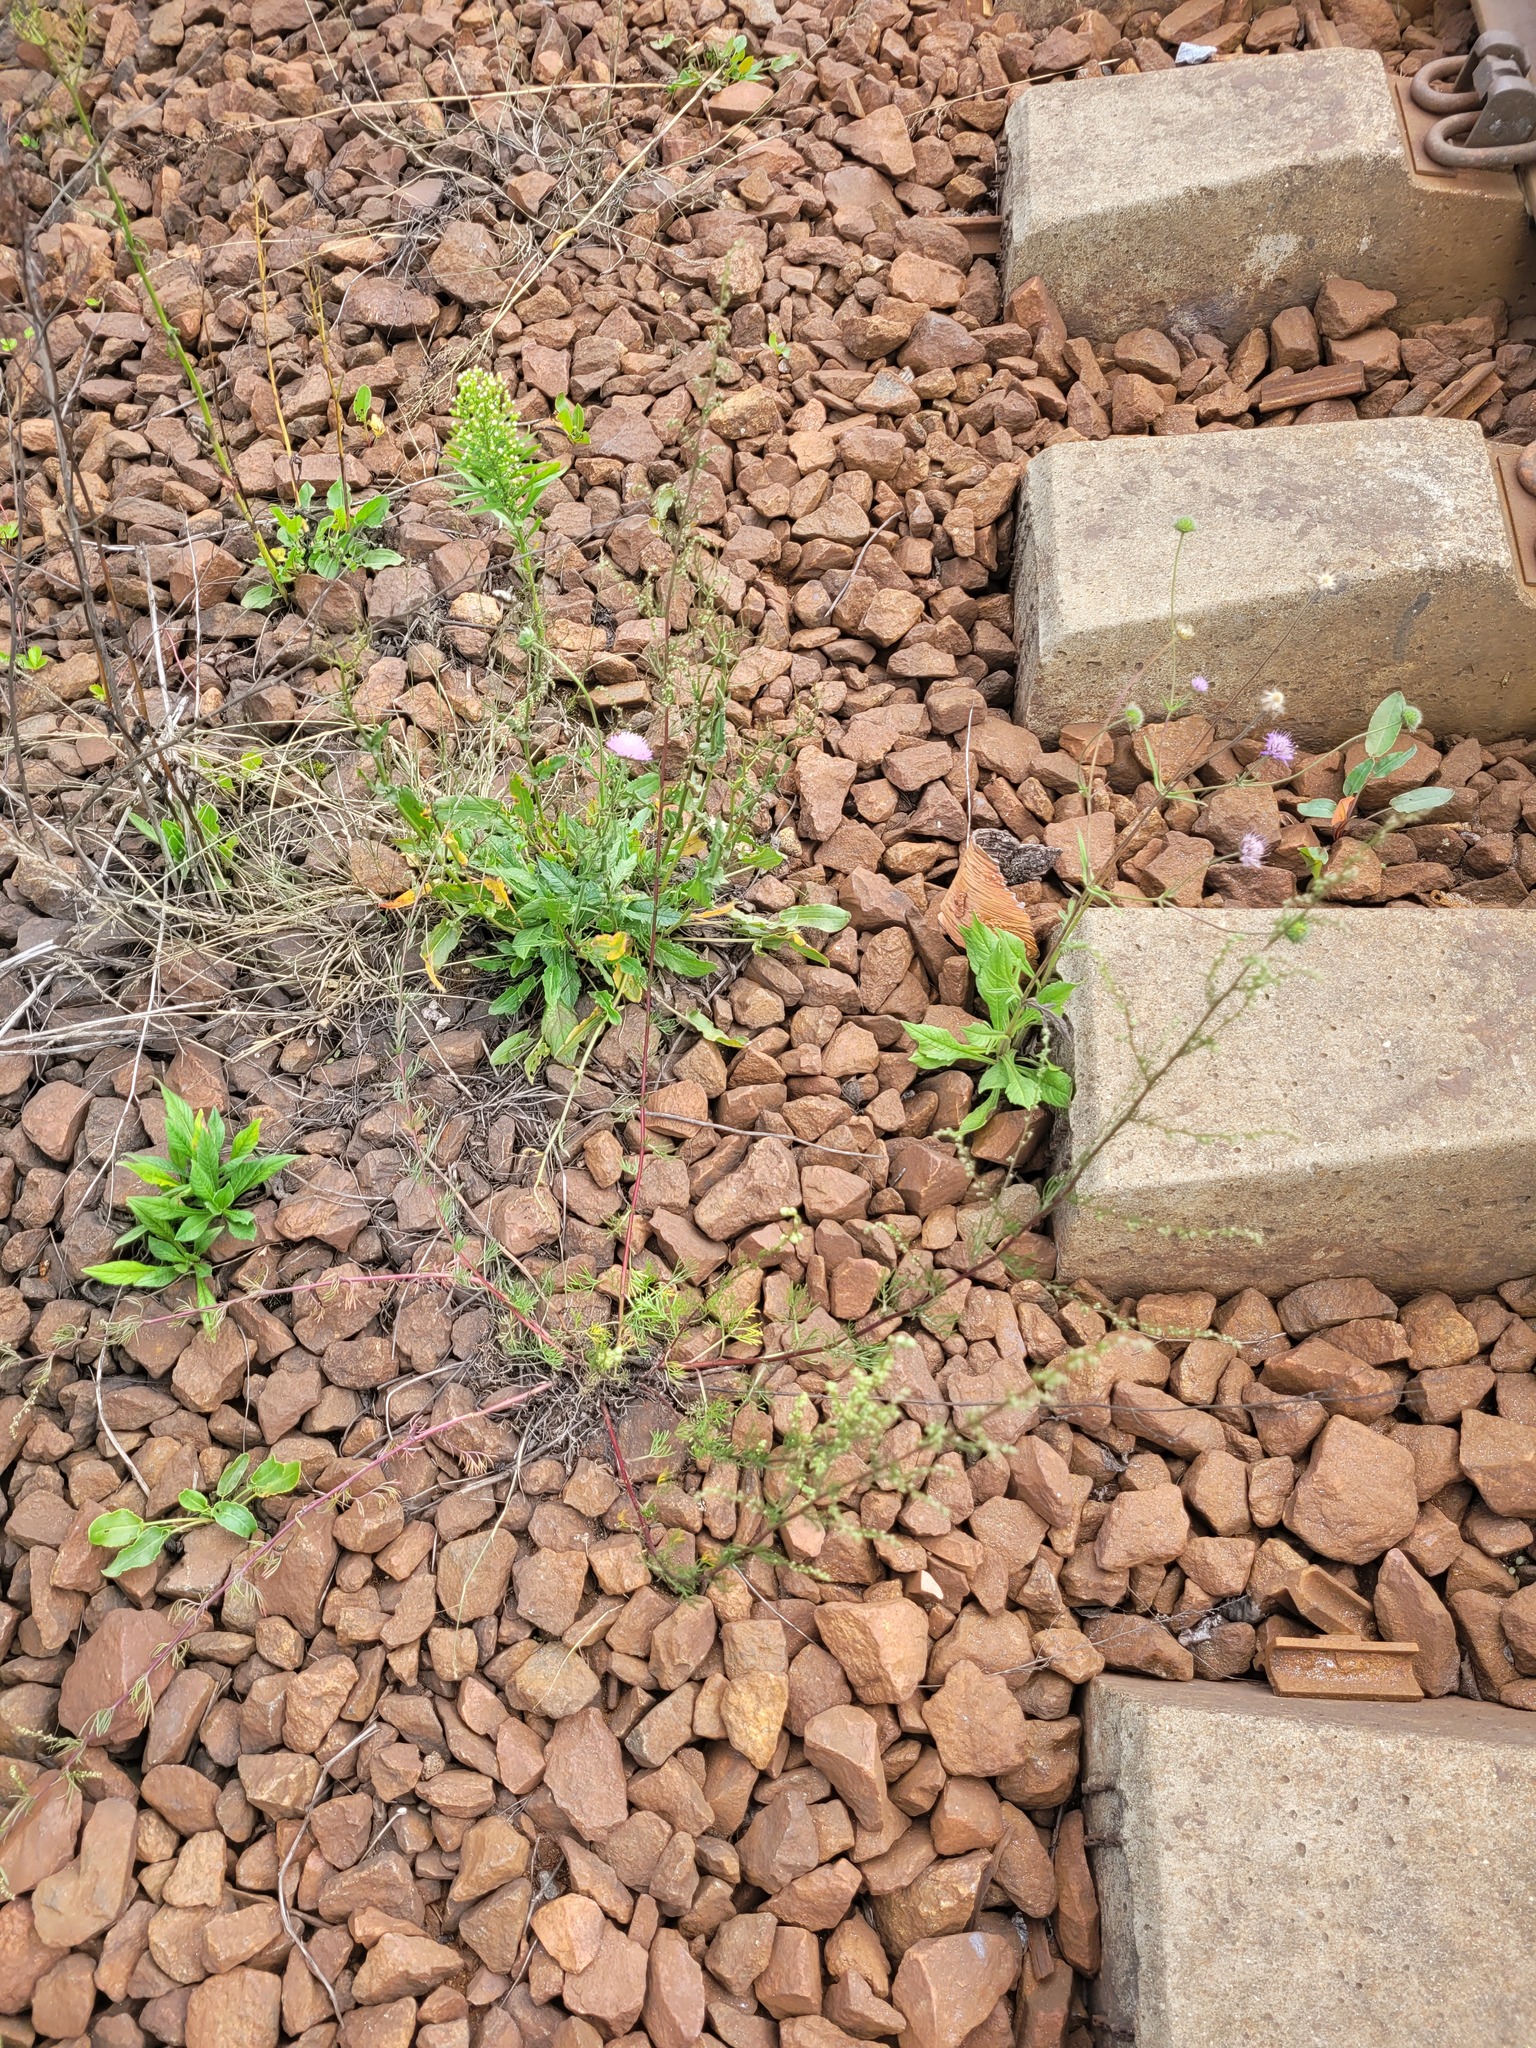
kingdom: Plantae
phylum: Tracheophyta
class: Magnoliopsida
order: Asterales
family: Asteraceae
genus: Artemisia
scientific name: Artemisia campestris
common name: Field wormwood
